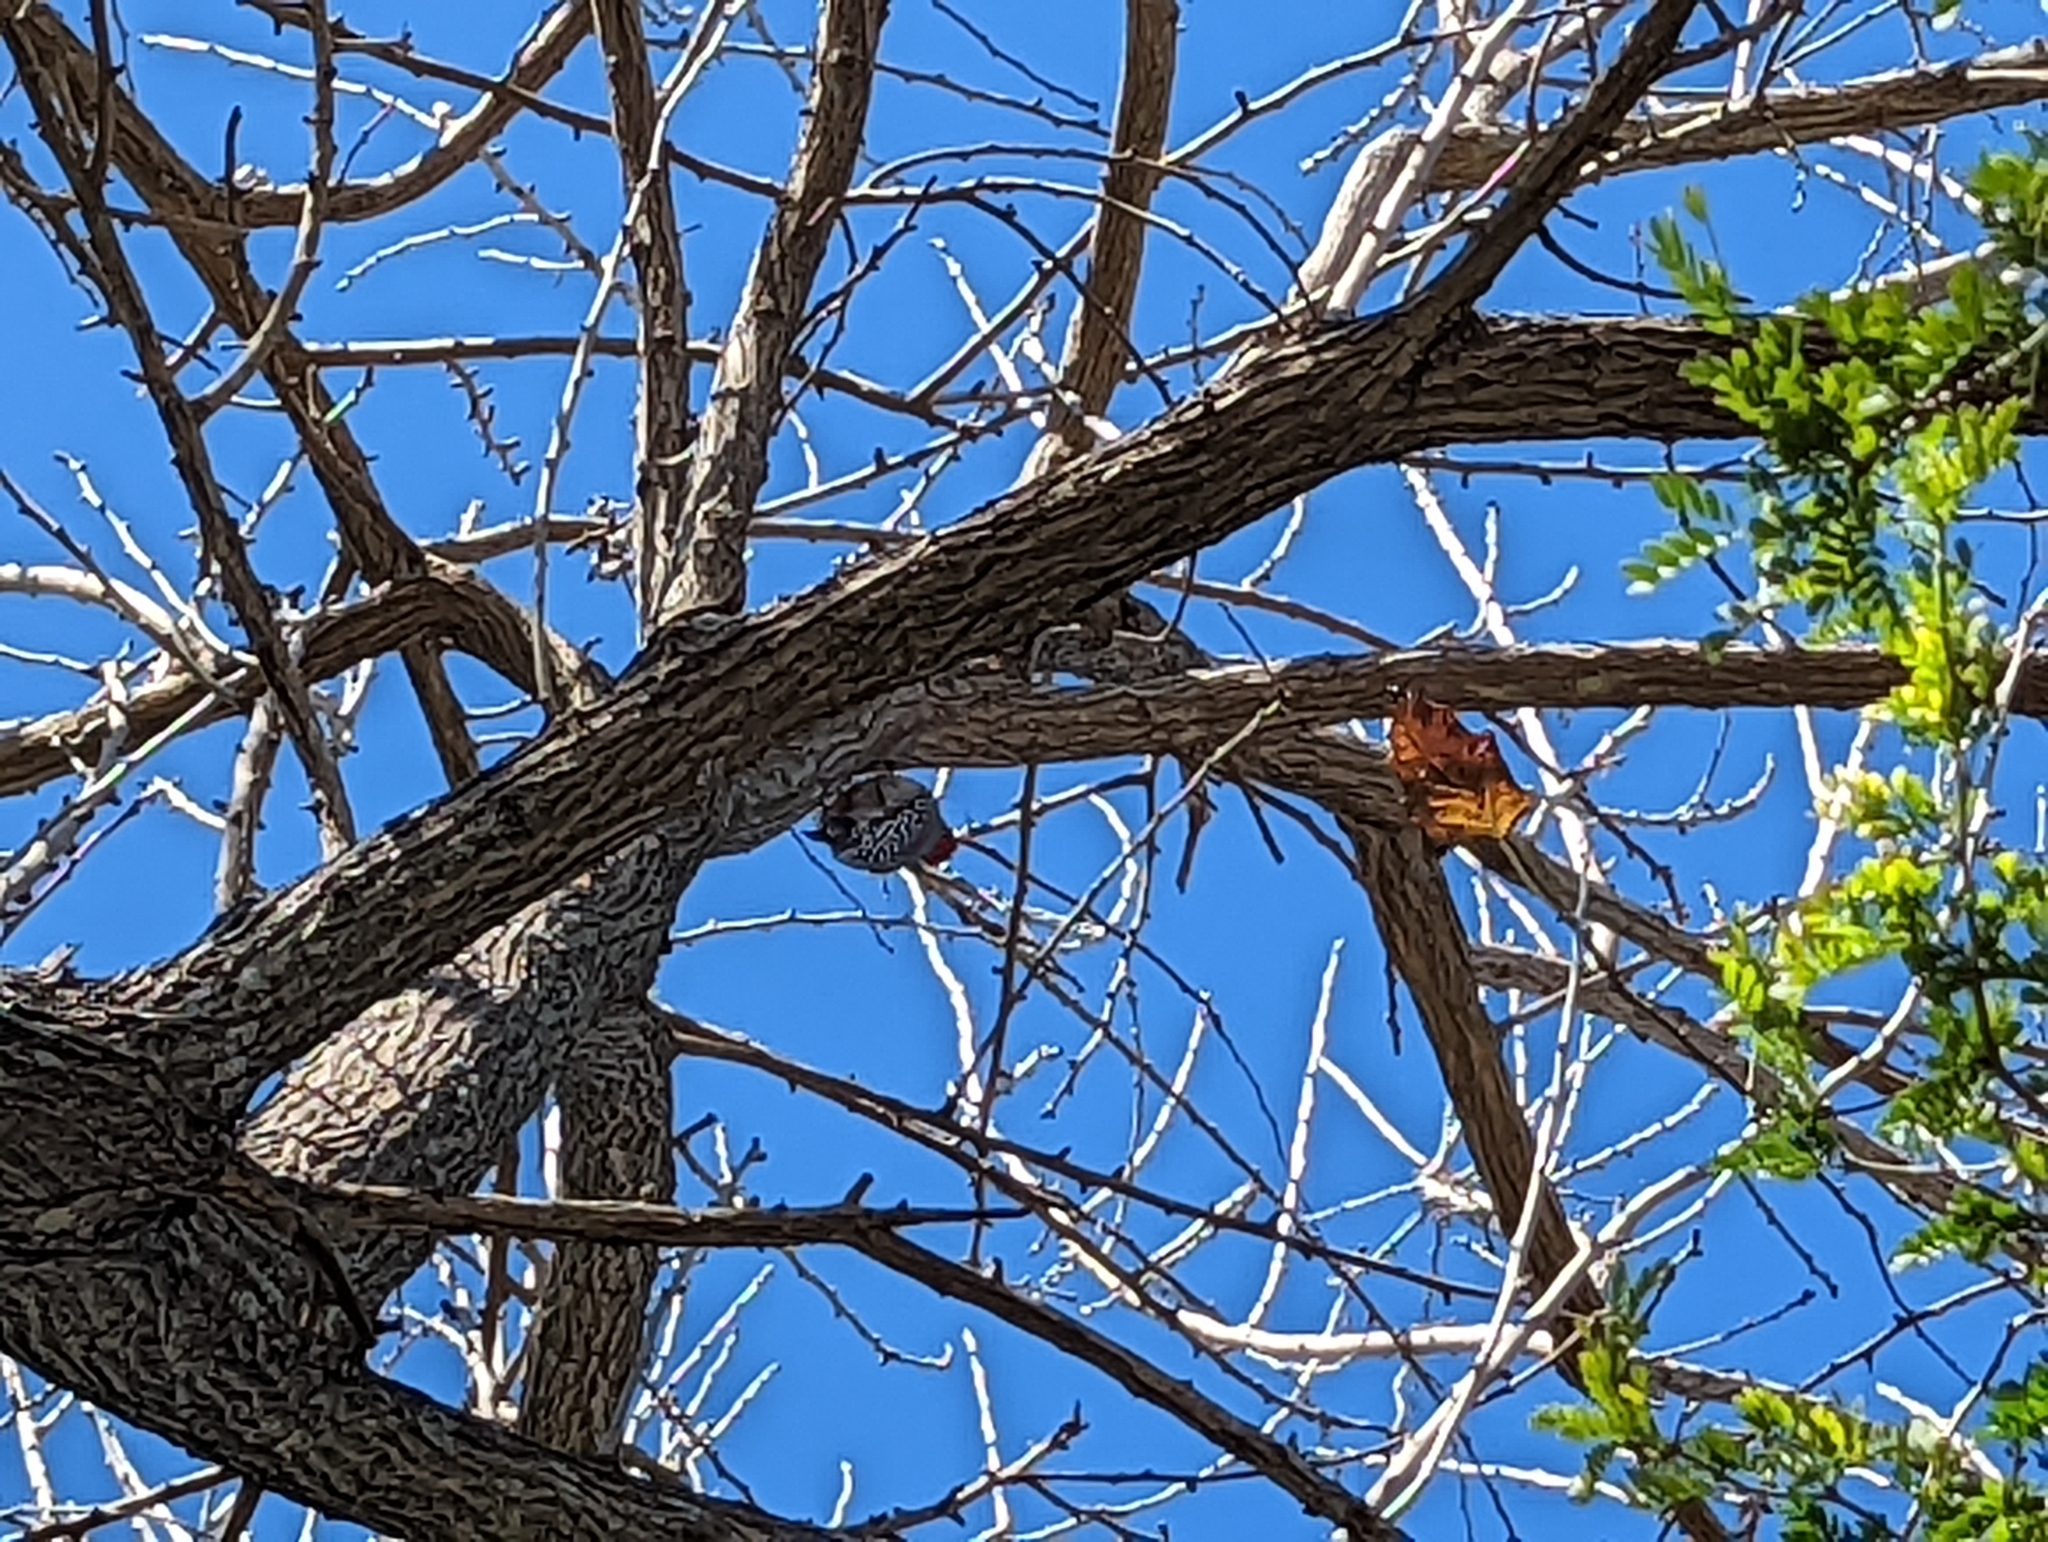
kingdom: Animalia
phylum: Chordata
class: Aves
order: Piciformes
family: Picidae
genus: Melanerpes
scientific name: Melanerpes carolinus
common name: Red-bellied woodpecker
